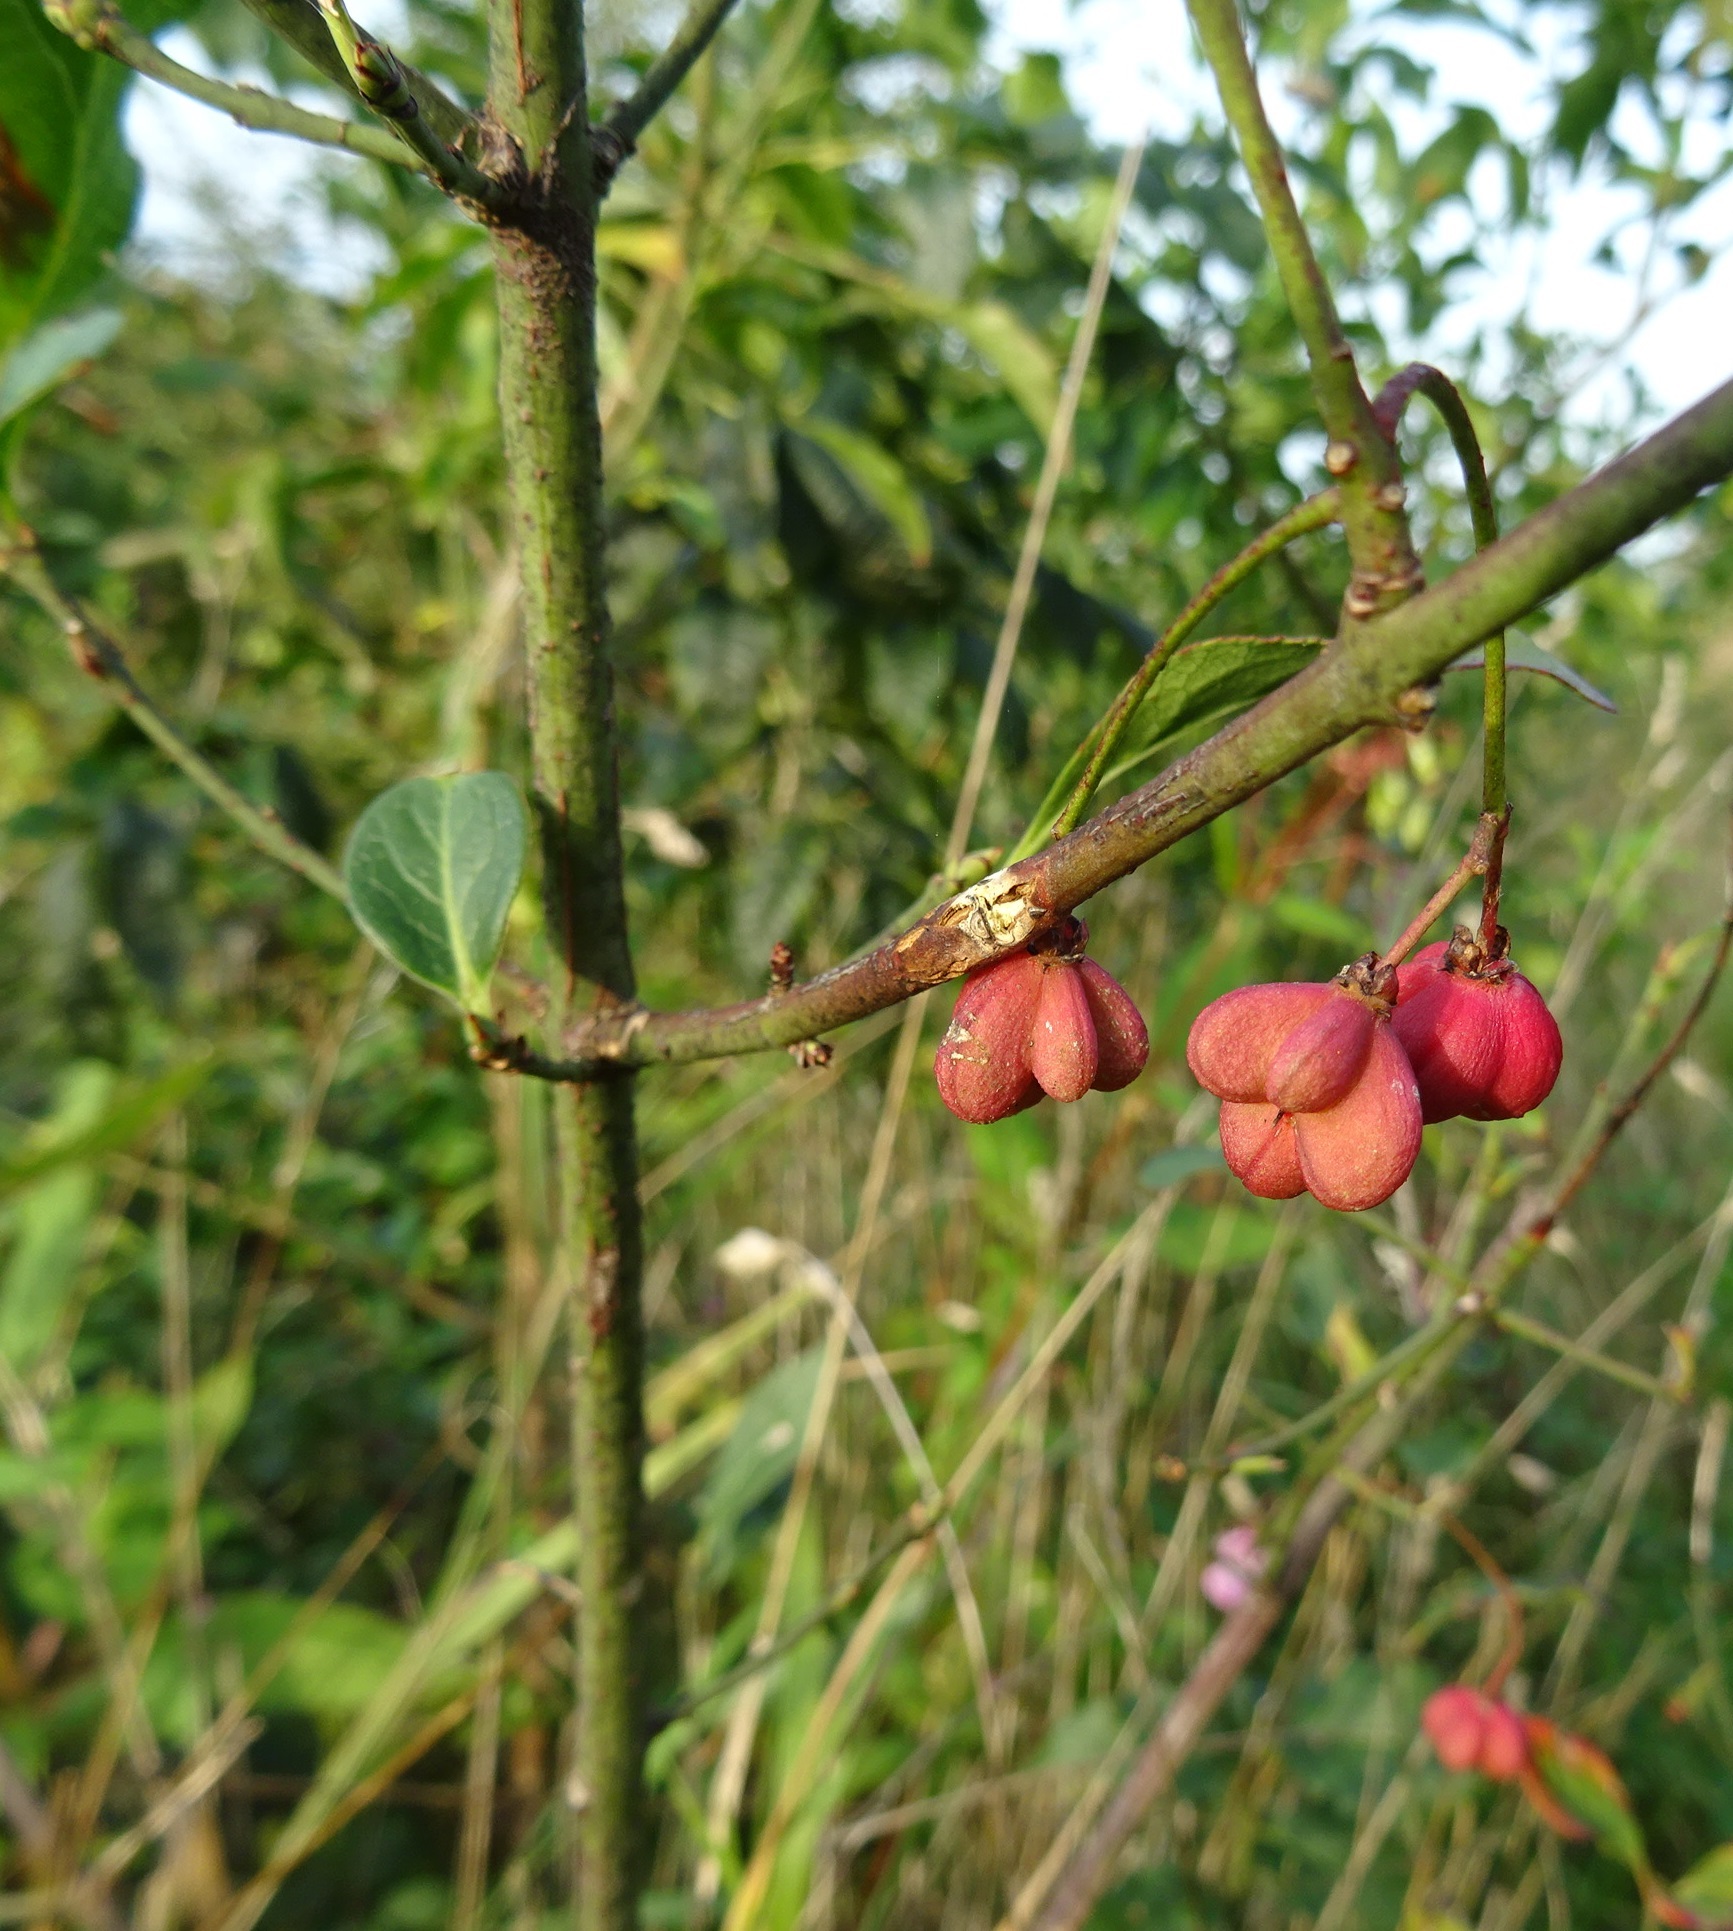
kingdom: Plantae
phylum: Tracheophyta
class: Magnoliopsida
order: Celastrales
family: Celastraceae
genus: Euonymus
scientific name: Euonymus europaeus
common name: Spindle
